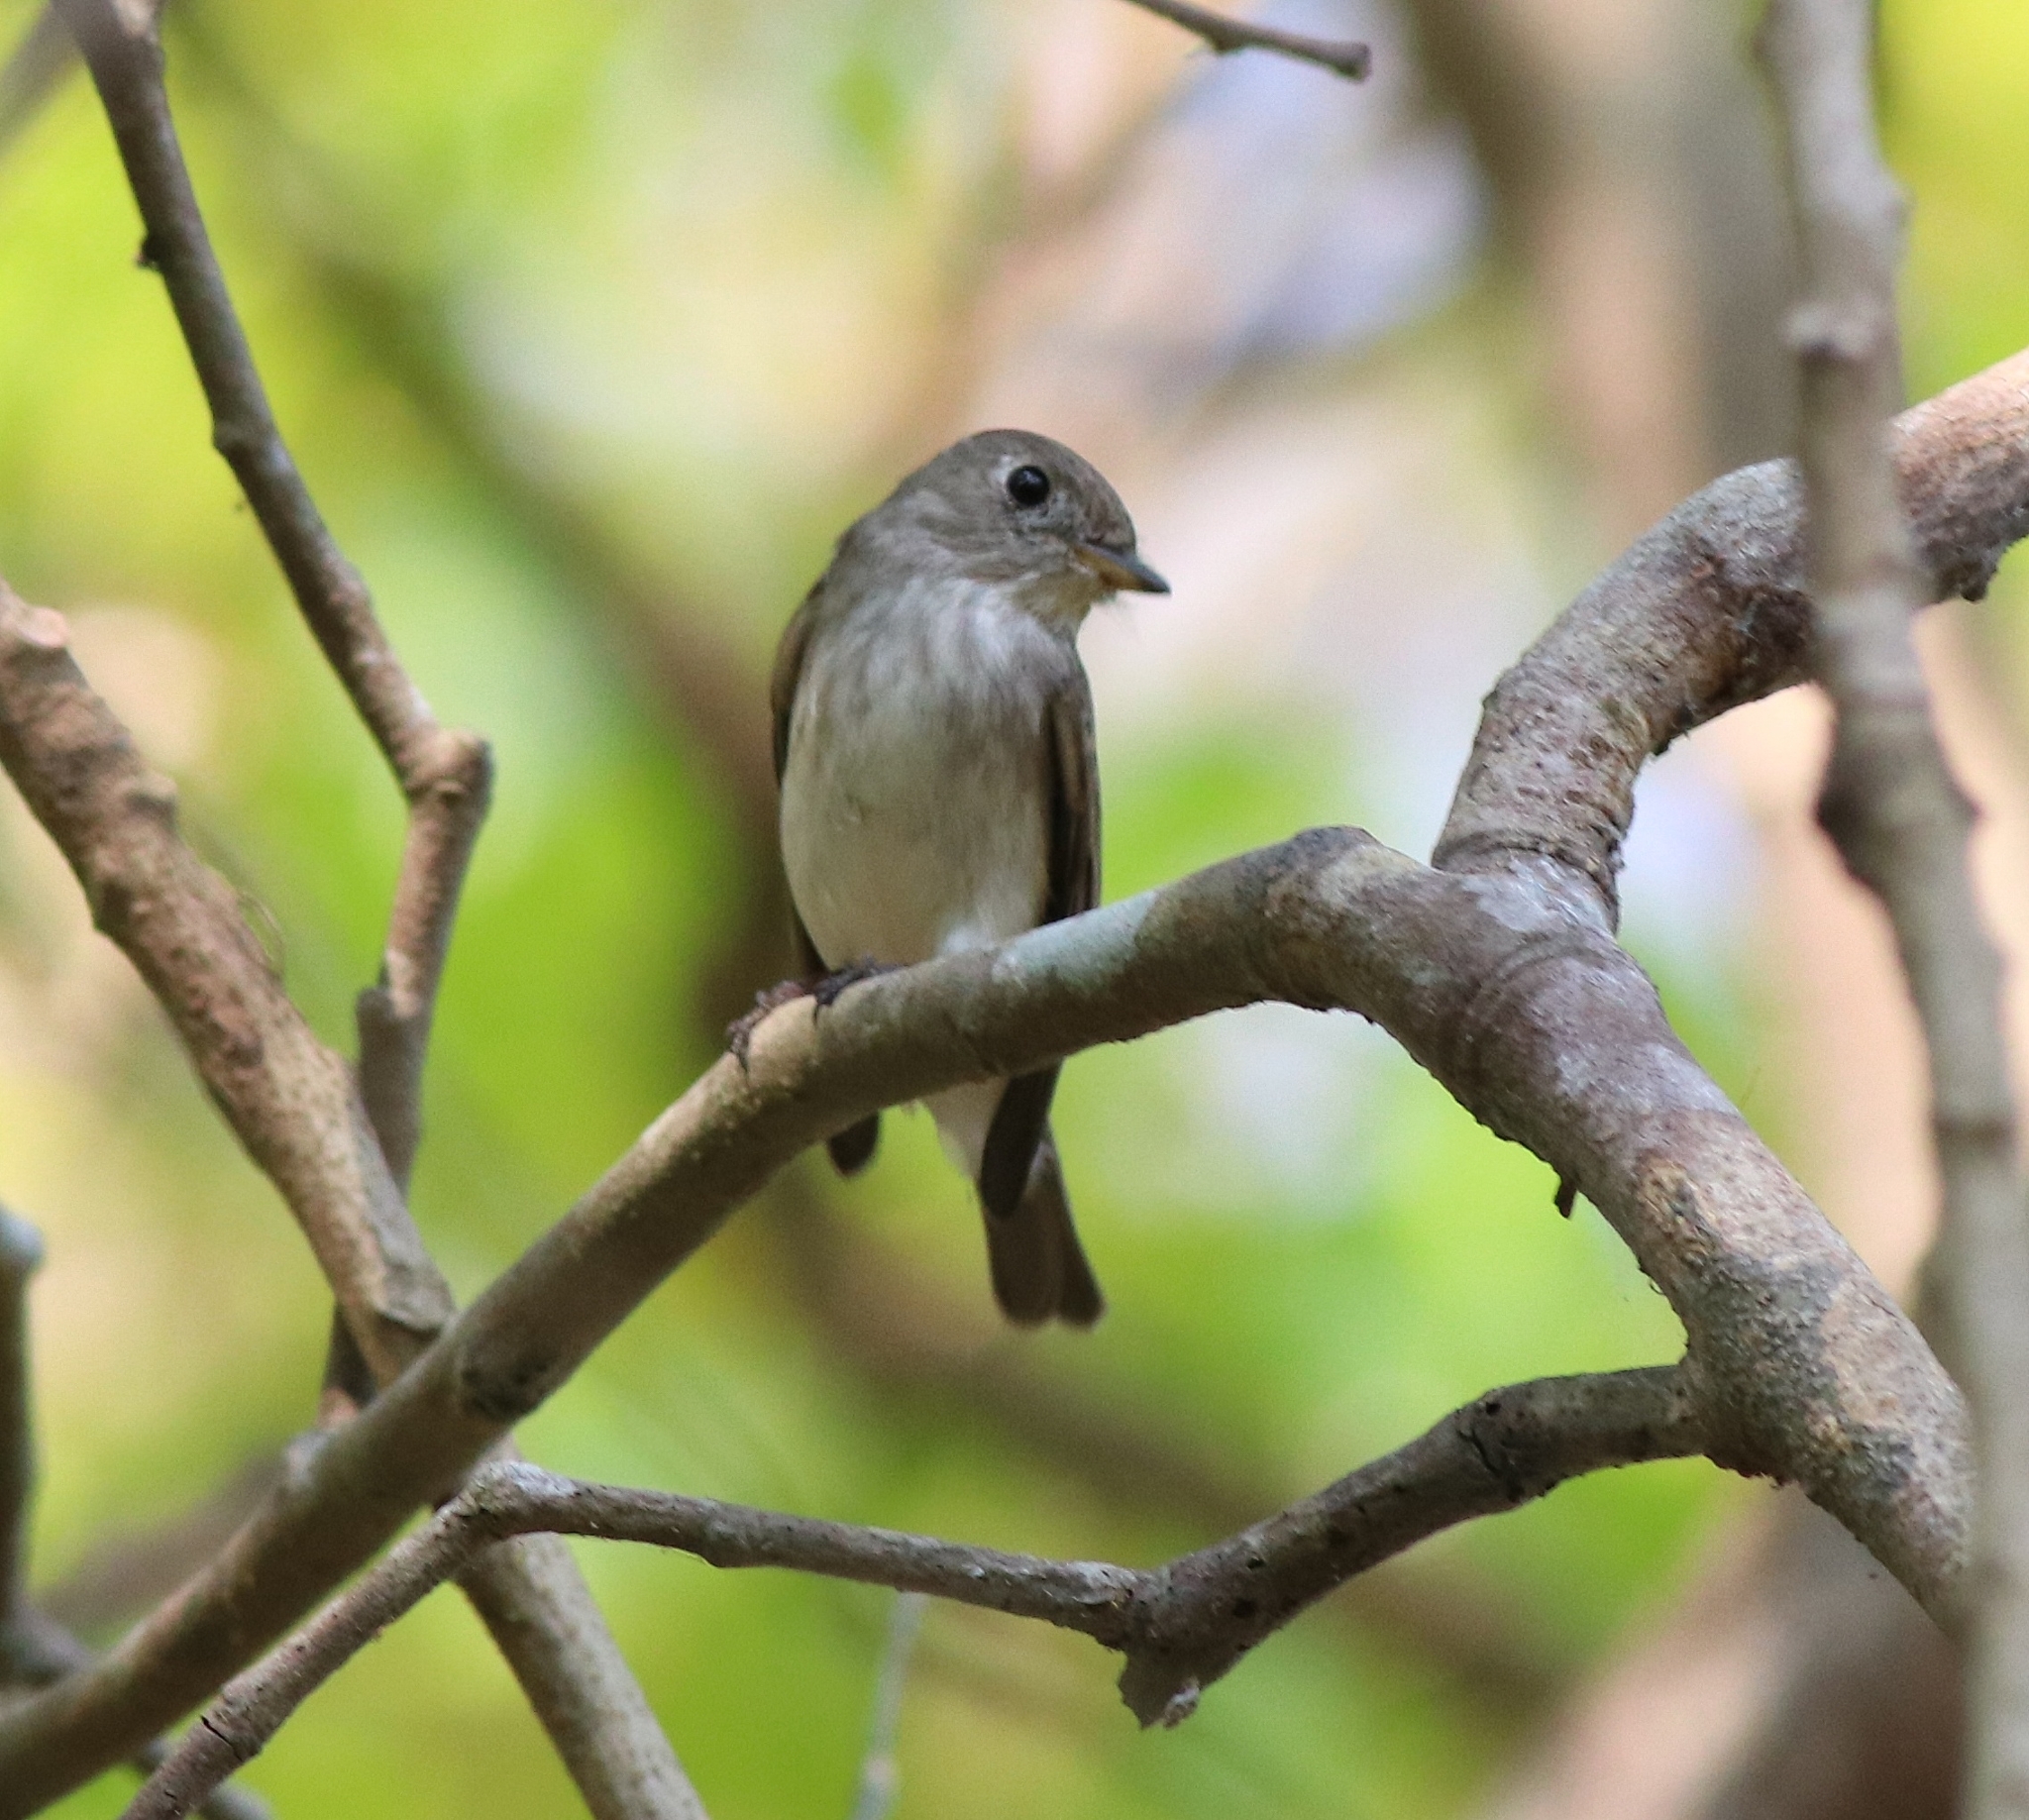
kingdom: Animalia
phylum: Chordata
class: Aves
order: Passeriformes
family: Muscicapidae
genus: Muscicapa
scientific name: Muscicapa latirostris
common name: Asian brown flycatcher
